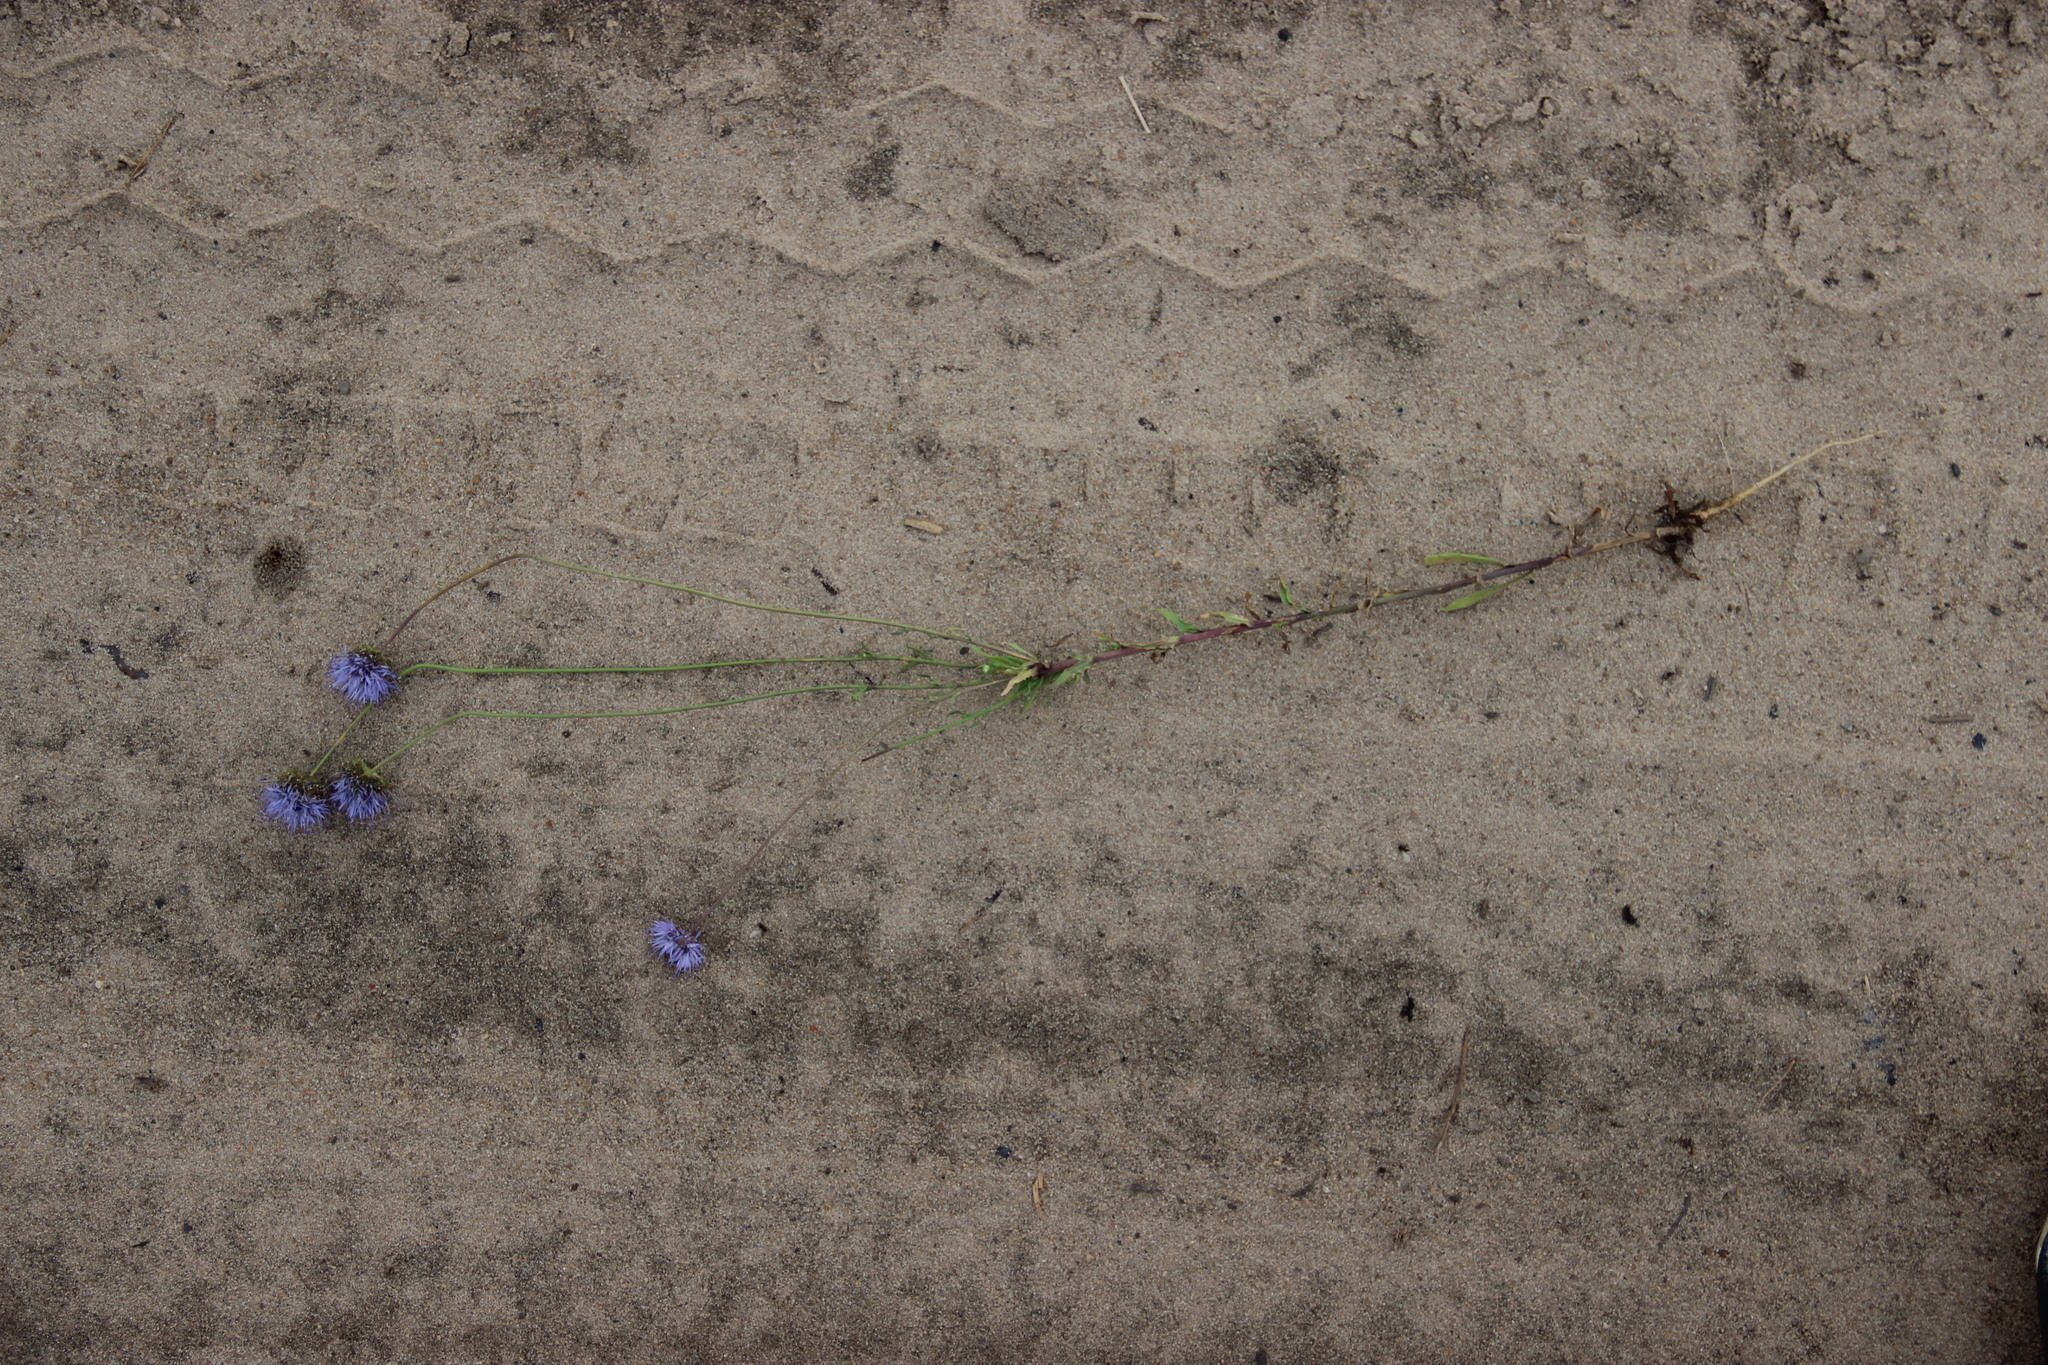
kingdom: Plantae
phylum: Tracheophyta
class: Magnoliopsida
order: Asterales
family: Campanulaceae
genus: Jasione
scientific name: Jasione montana
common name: Sheep's-bit
